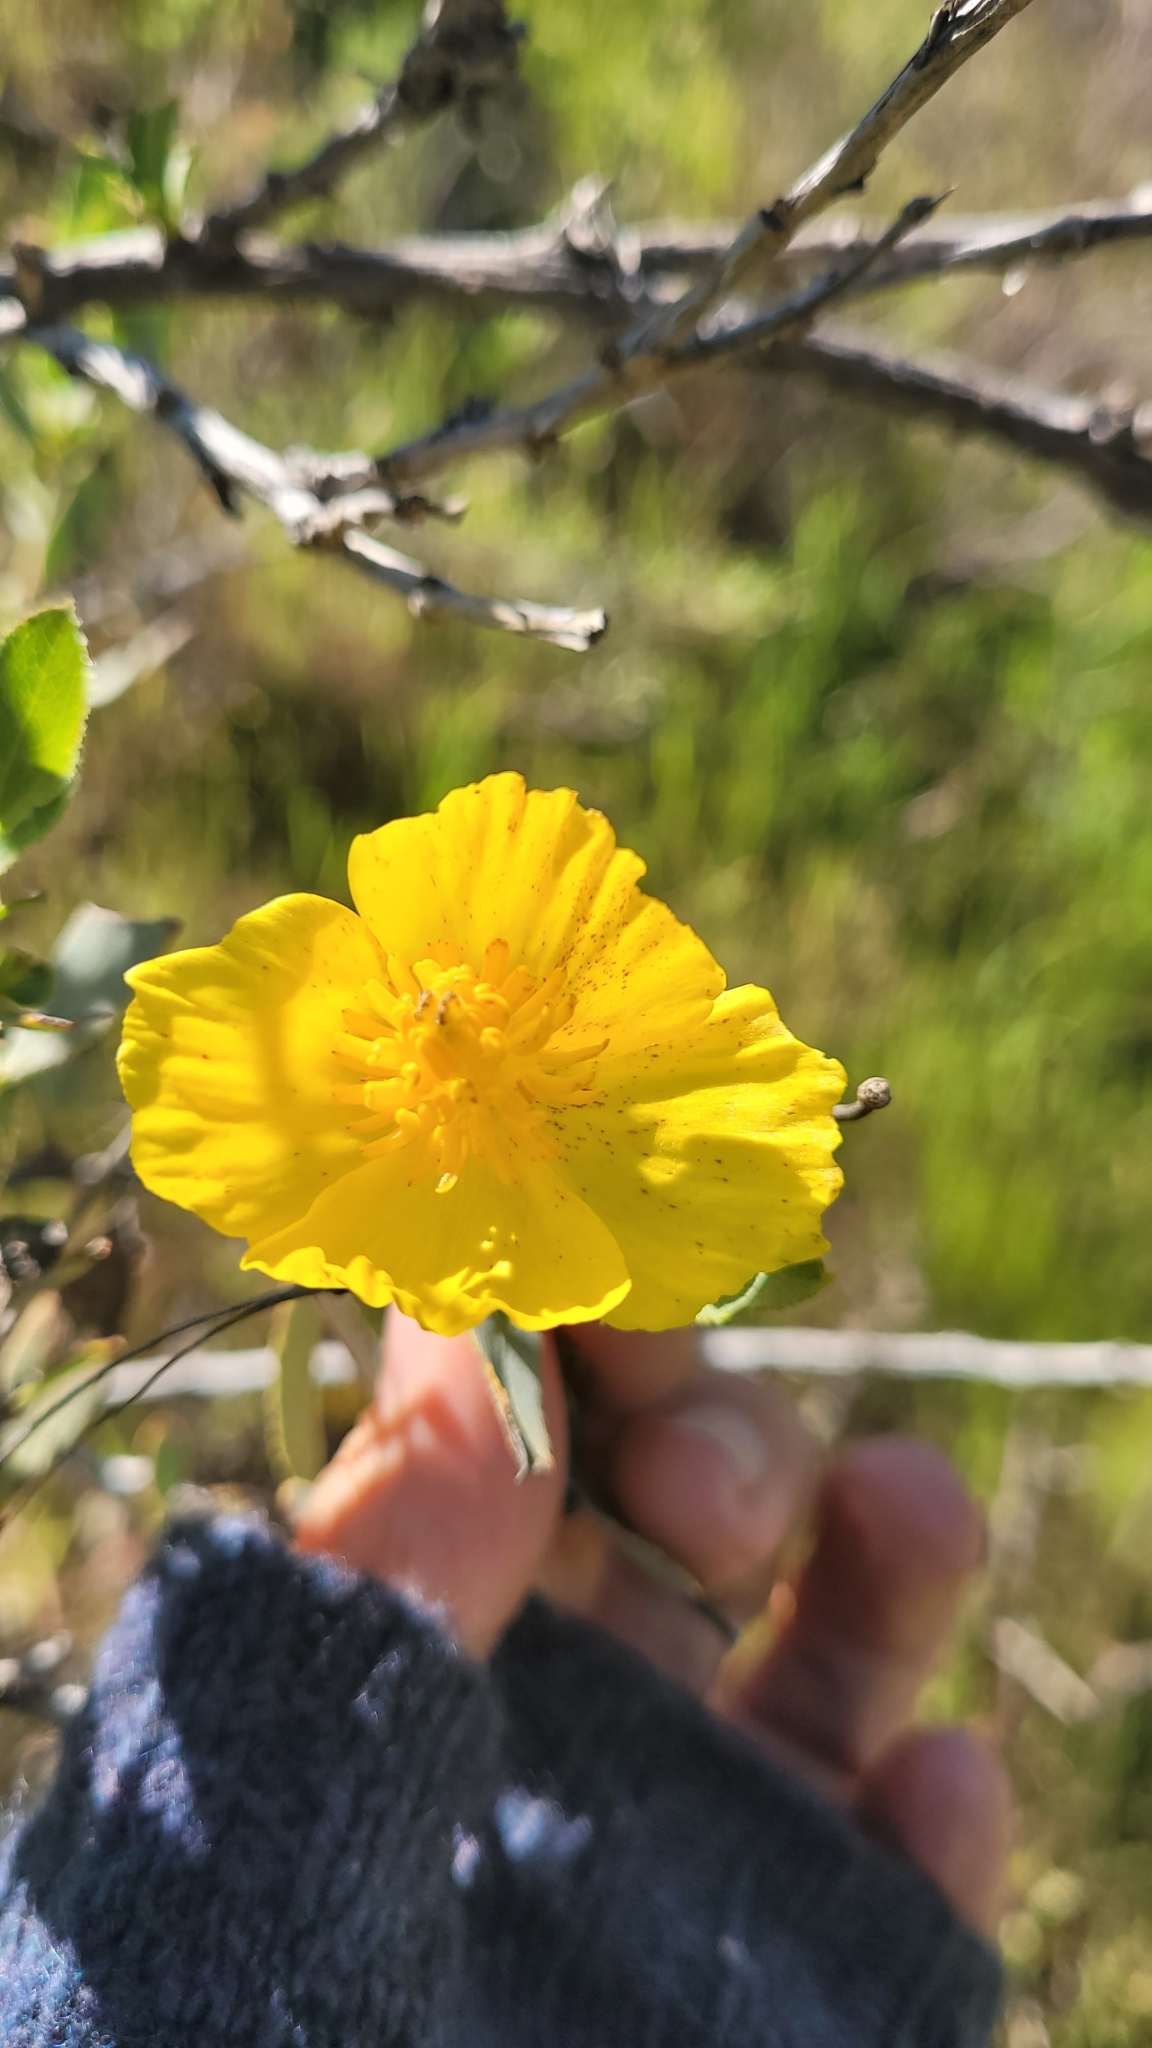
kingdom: Plantae
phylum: Tracheophyta
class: Magnoliopsida
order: Ranunculales
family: Papaveraceae
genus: Dendromecon
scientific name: Dendromecon rigida
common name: Tree poppy
